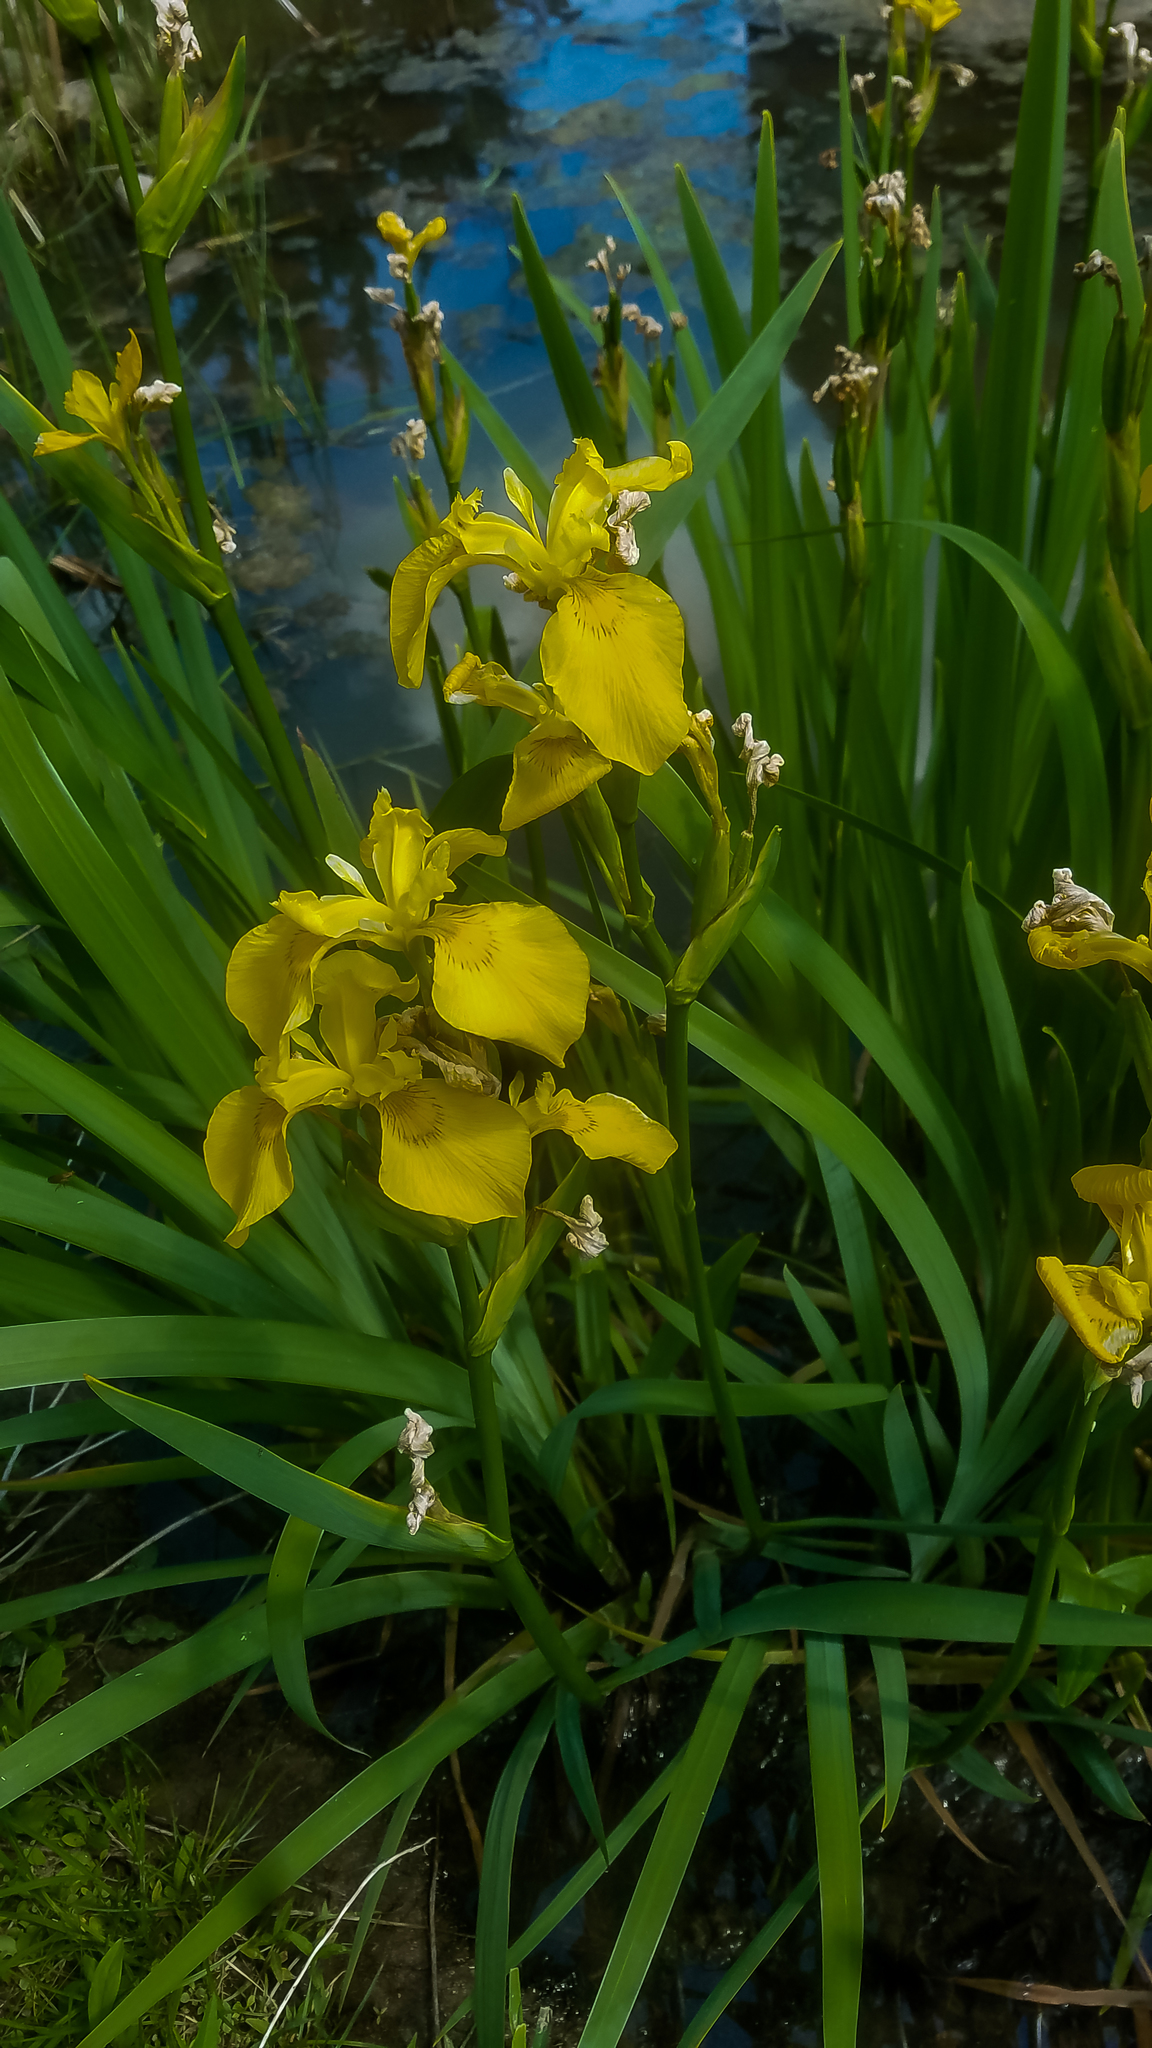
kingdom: Plantae
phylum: Tracheophyta
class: Liliopsida
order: Asparagales
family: Iridaceae
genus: Iris
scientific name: Iris pseudacorus
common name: Yellow flag
